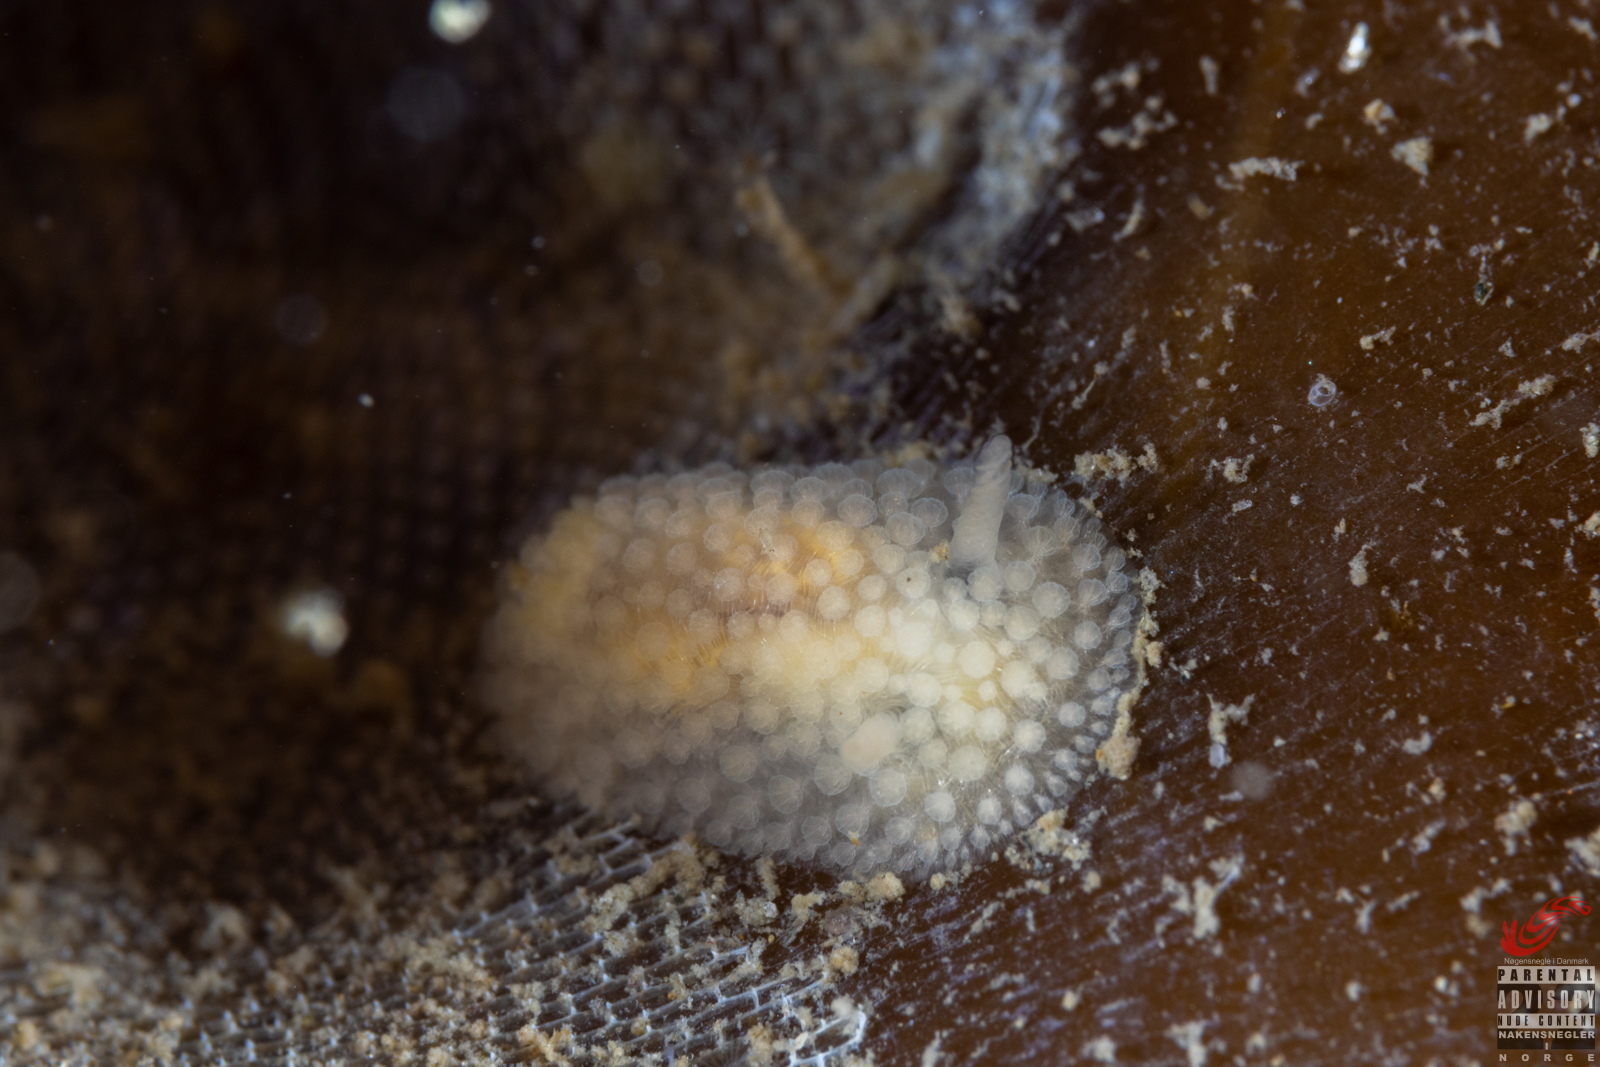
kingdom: Animalia
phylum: Mollusca
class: Gastropoda
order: Nudibranchia
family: Onchidorididae
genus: Onchidoris
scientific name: Onchidoris muricata
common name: Rough doris
